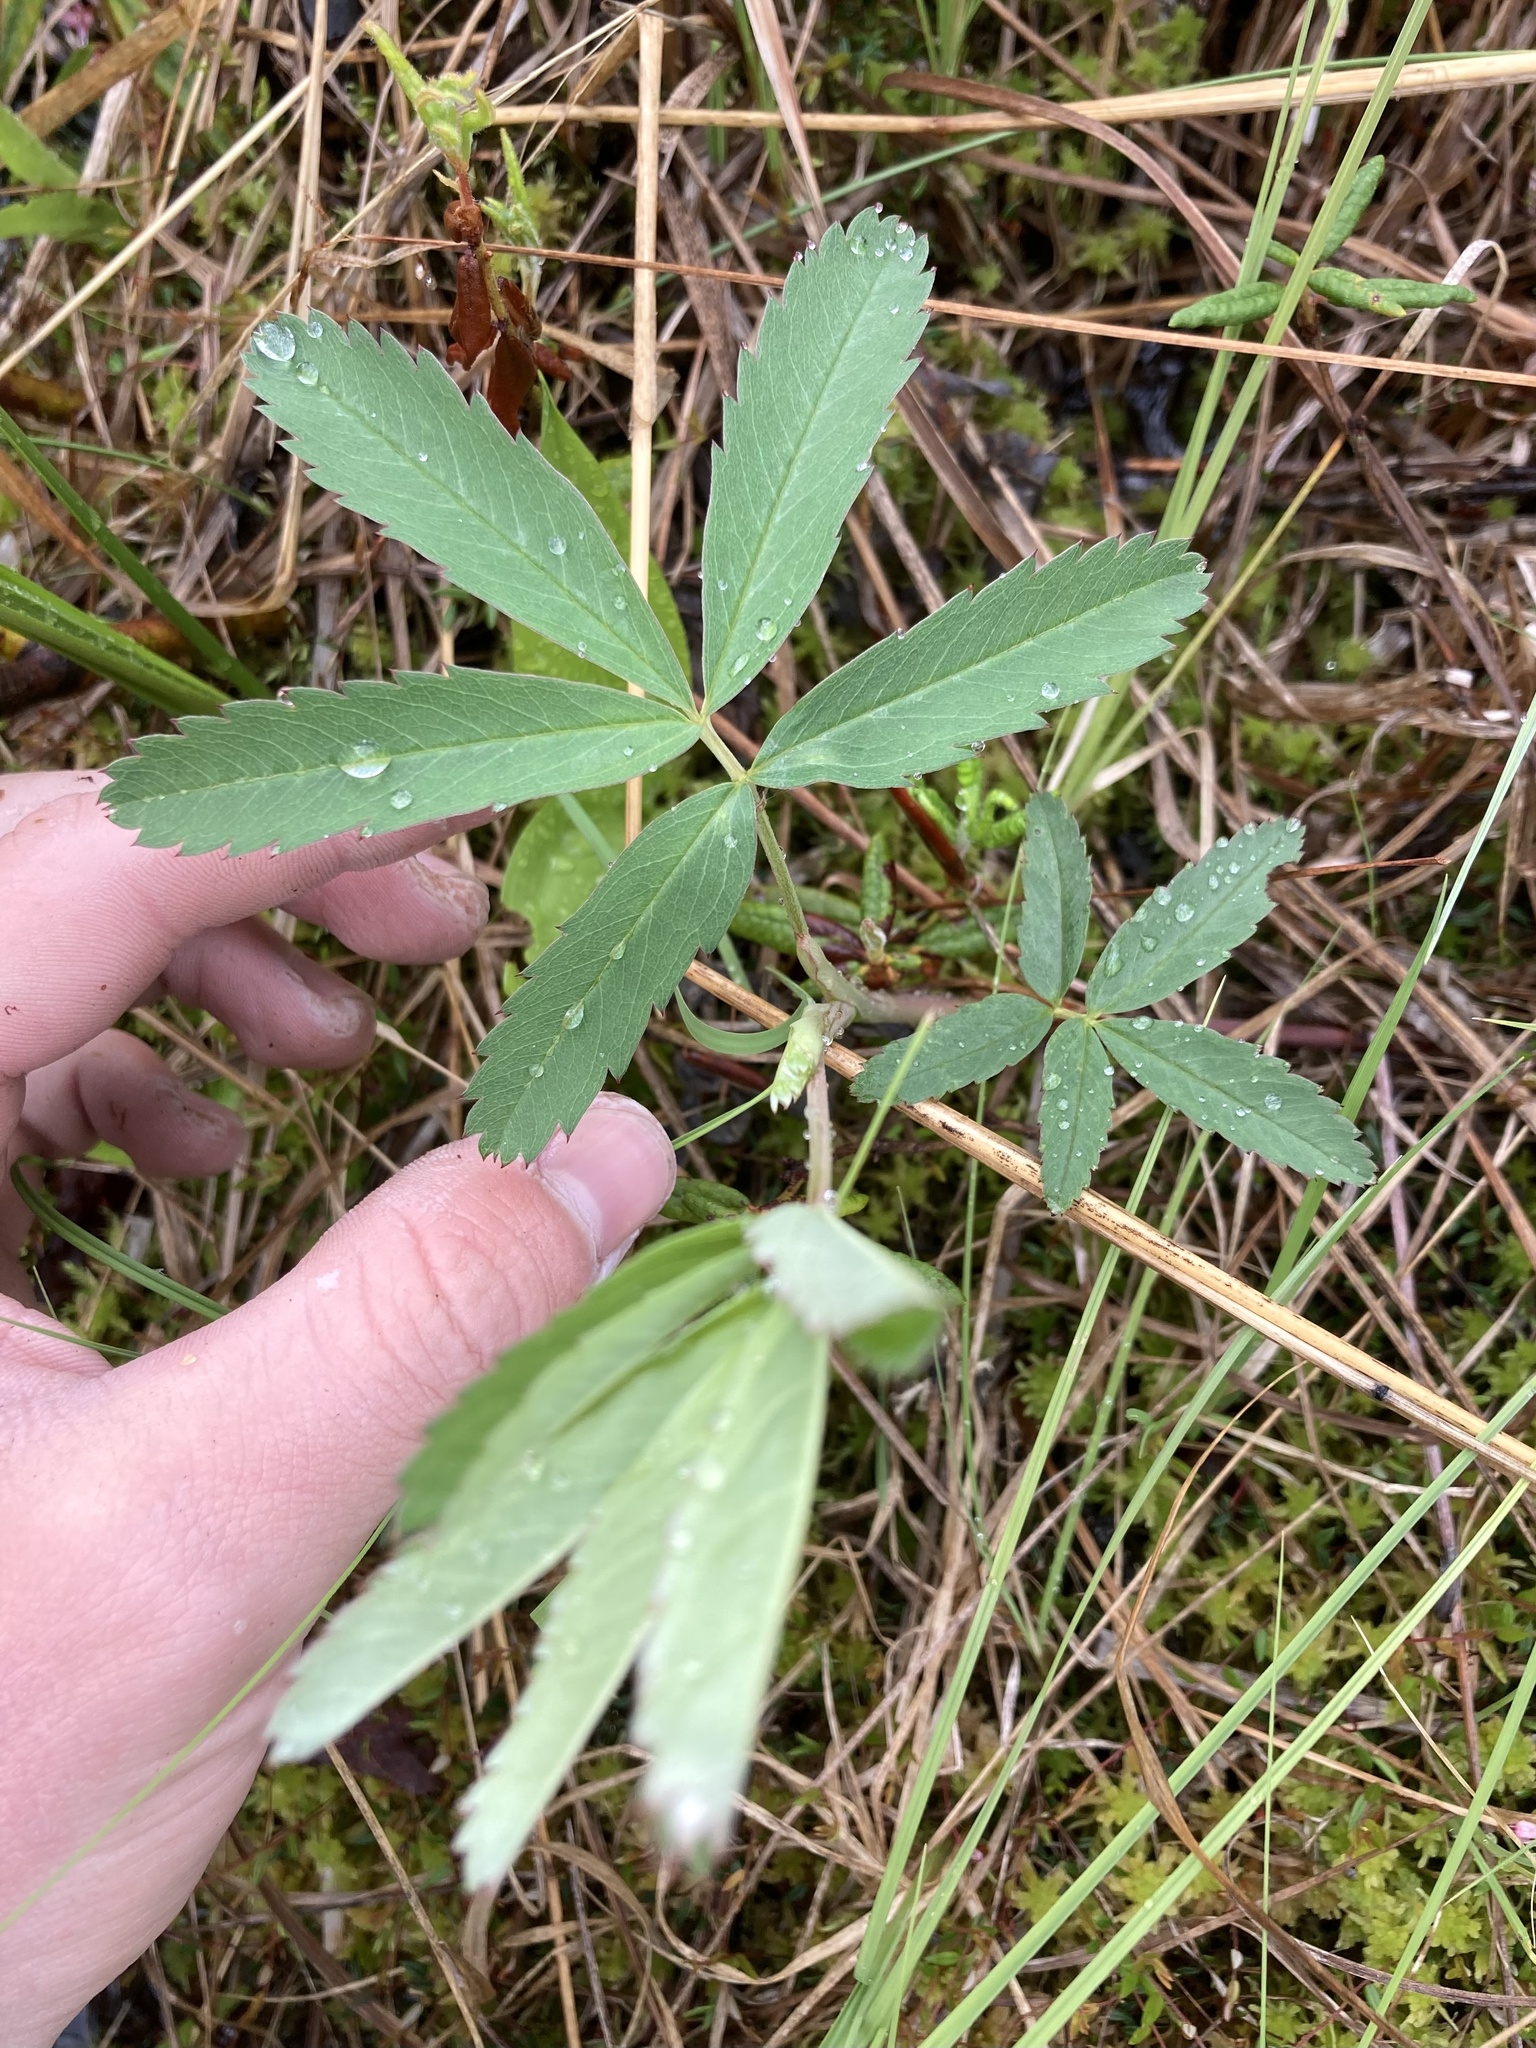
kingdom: Plantae
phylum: Tracheophyta
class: Magnoliopsida
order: Rosales
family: Rosaceae
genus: Comarum
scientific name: Comarum palustre
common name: Marsh cinquefoil
